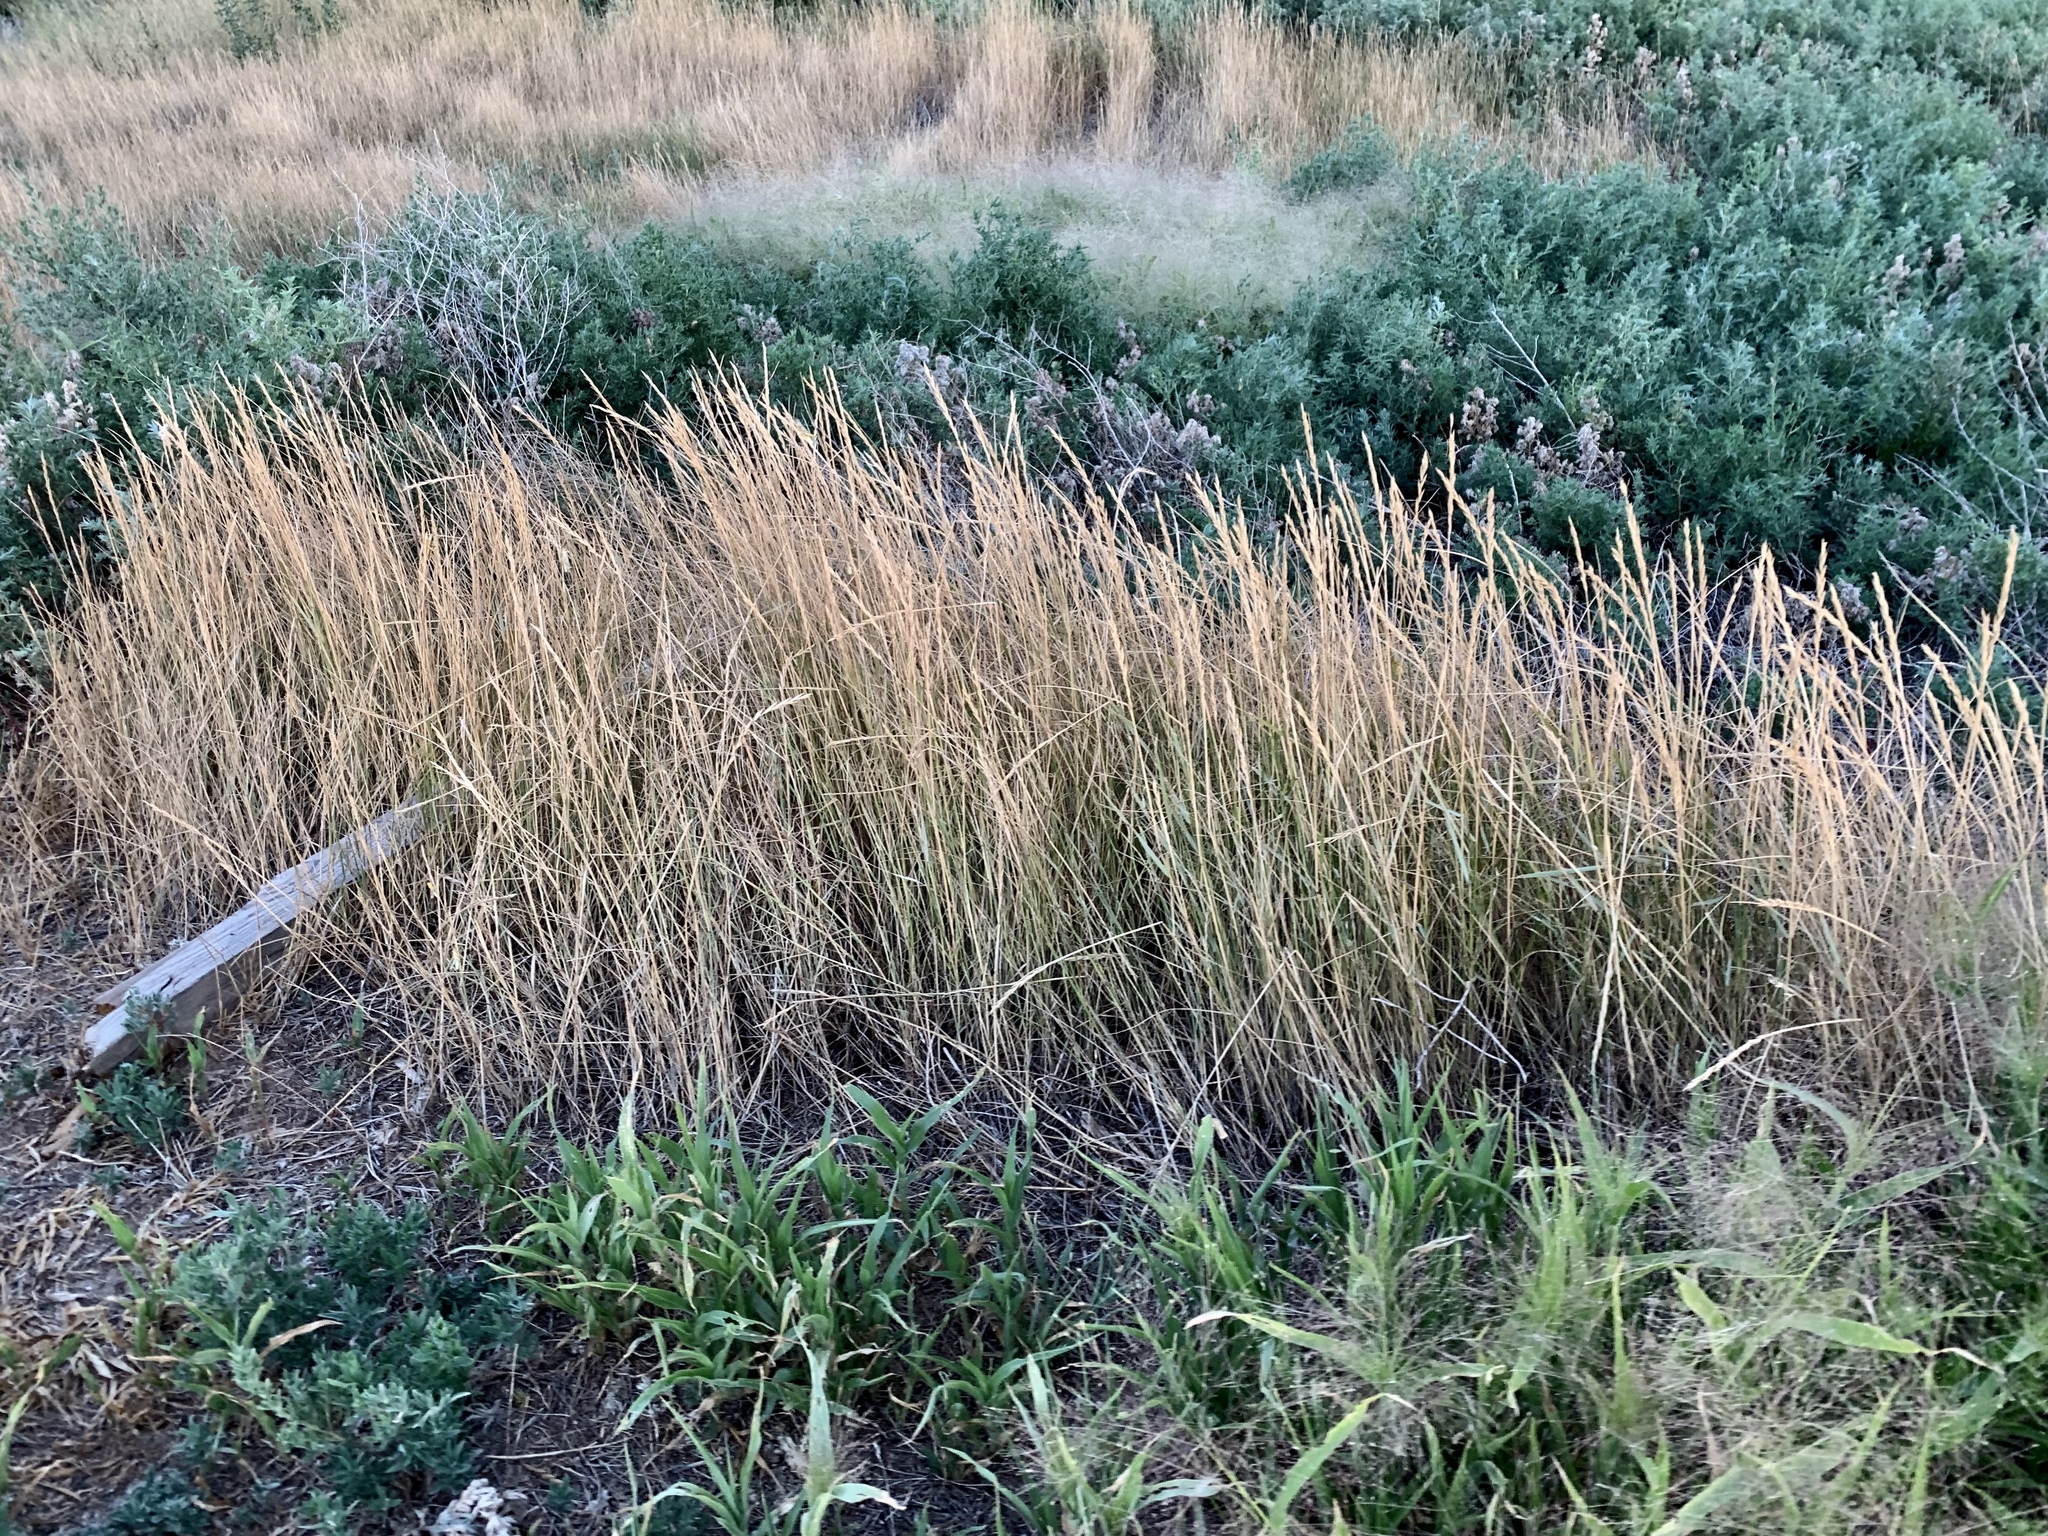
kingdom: Plantae
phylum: Tracheophyta
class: Liliopsida
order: Poales
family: Poaceae
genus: Elymus
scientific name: Elymus smithii
